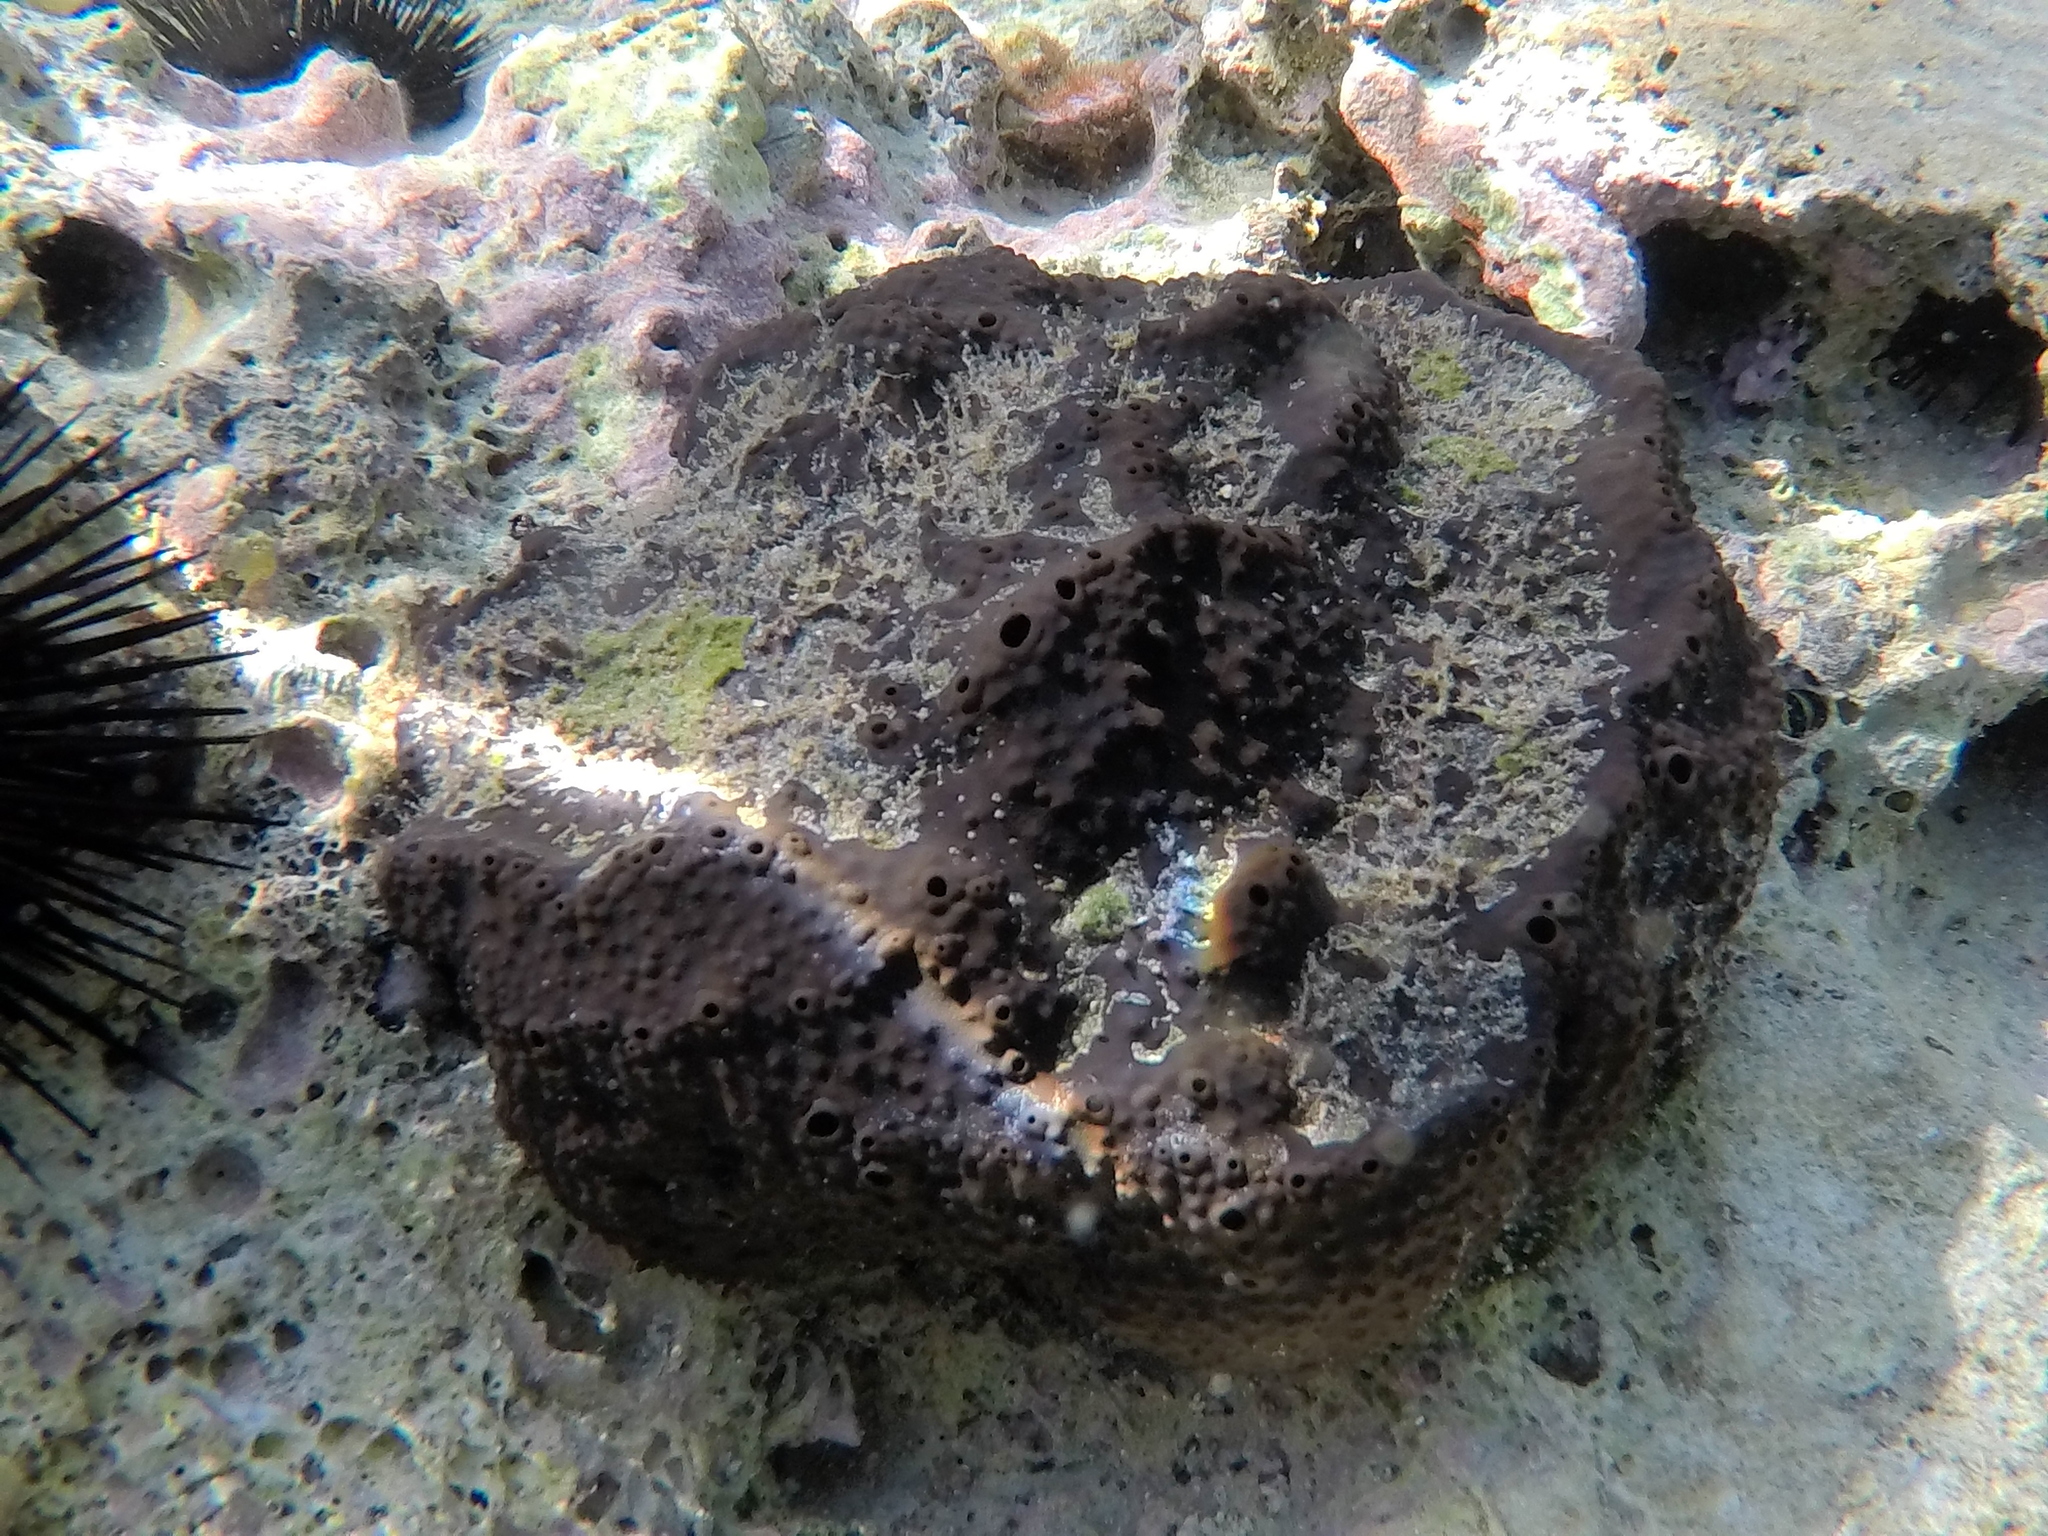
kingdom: Animalia
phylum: Porifera
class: Demospongiae
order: Dictyoceratida
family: Irciniidae
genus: Sarcotragus
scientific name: Sarcotragus spinosulus
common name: Black leather sponge
